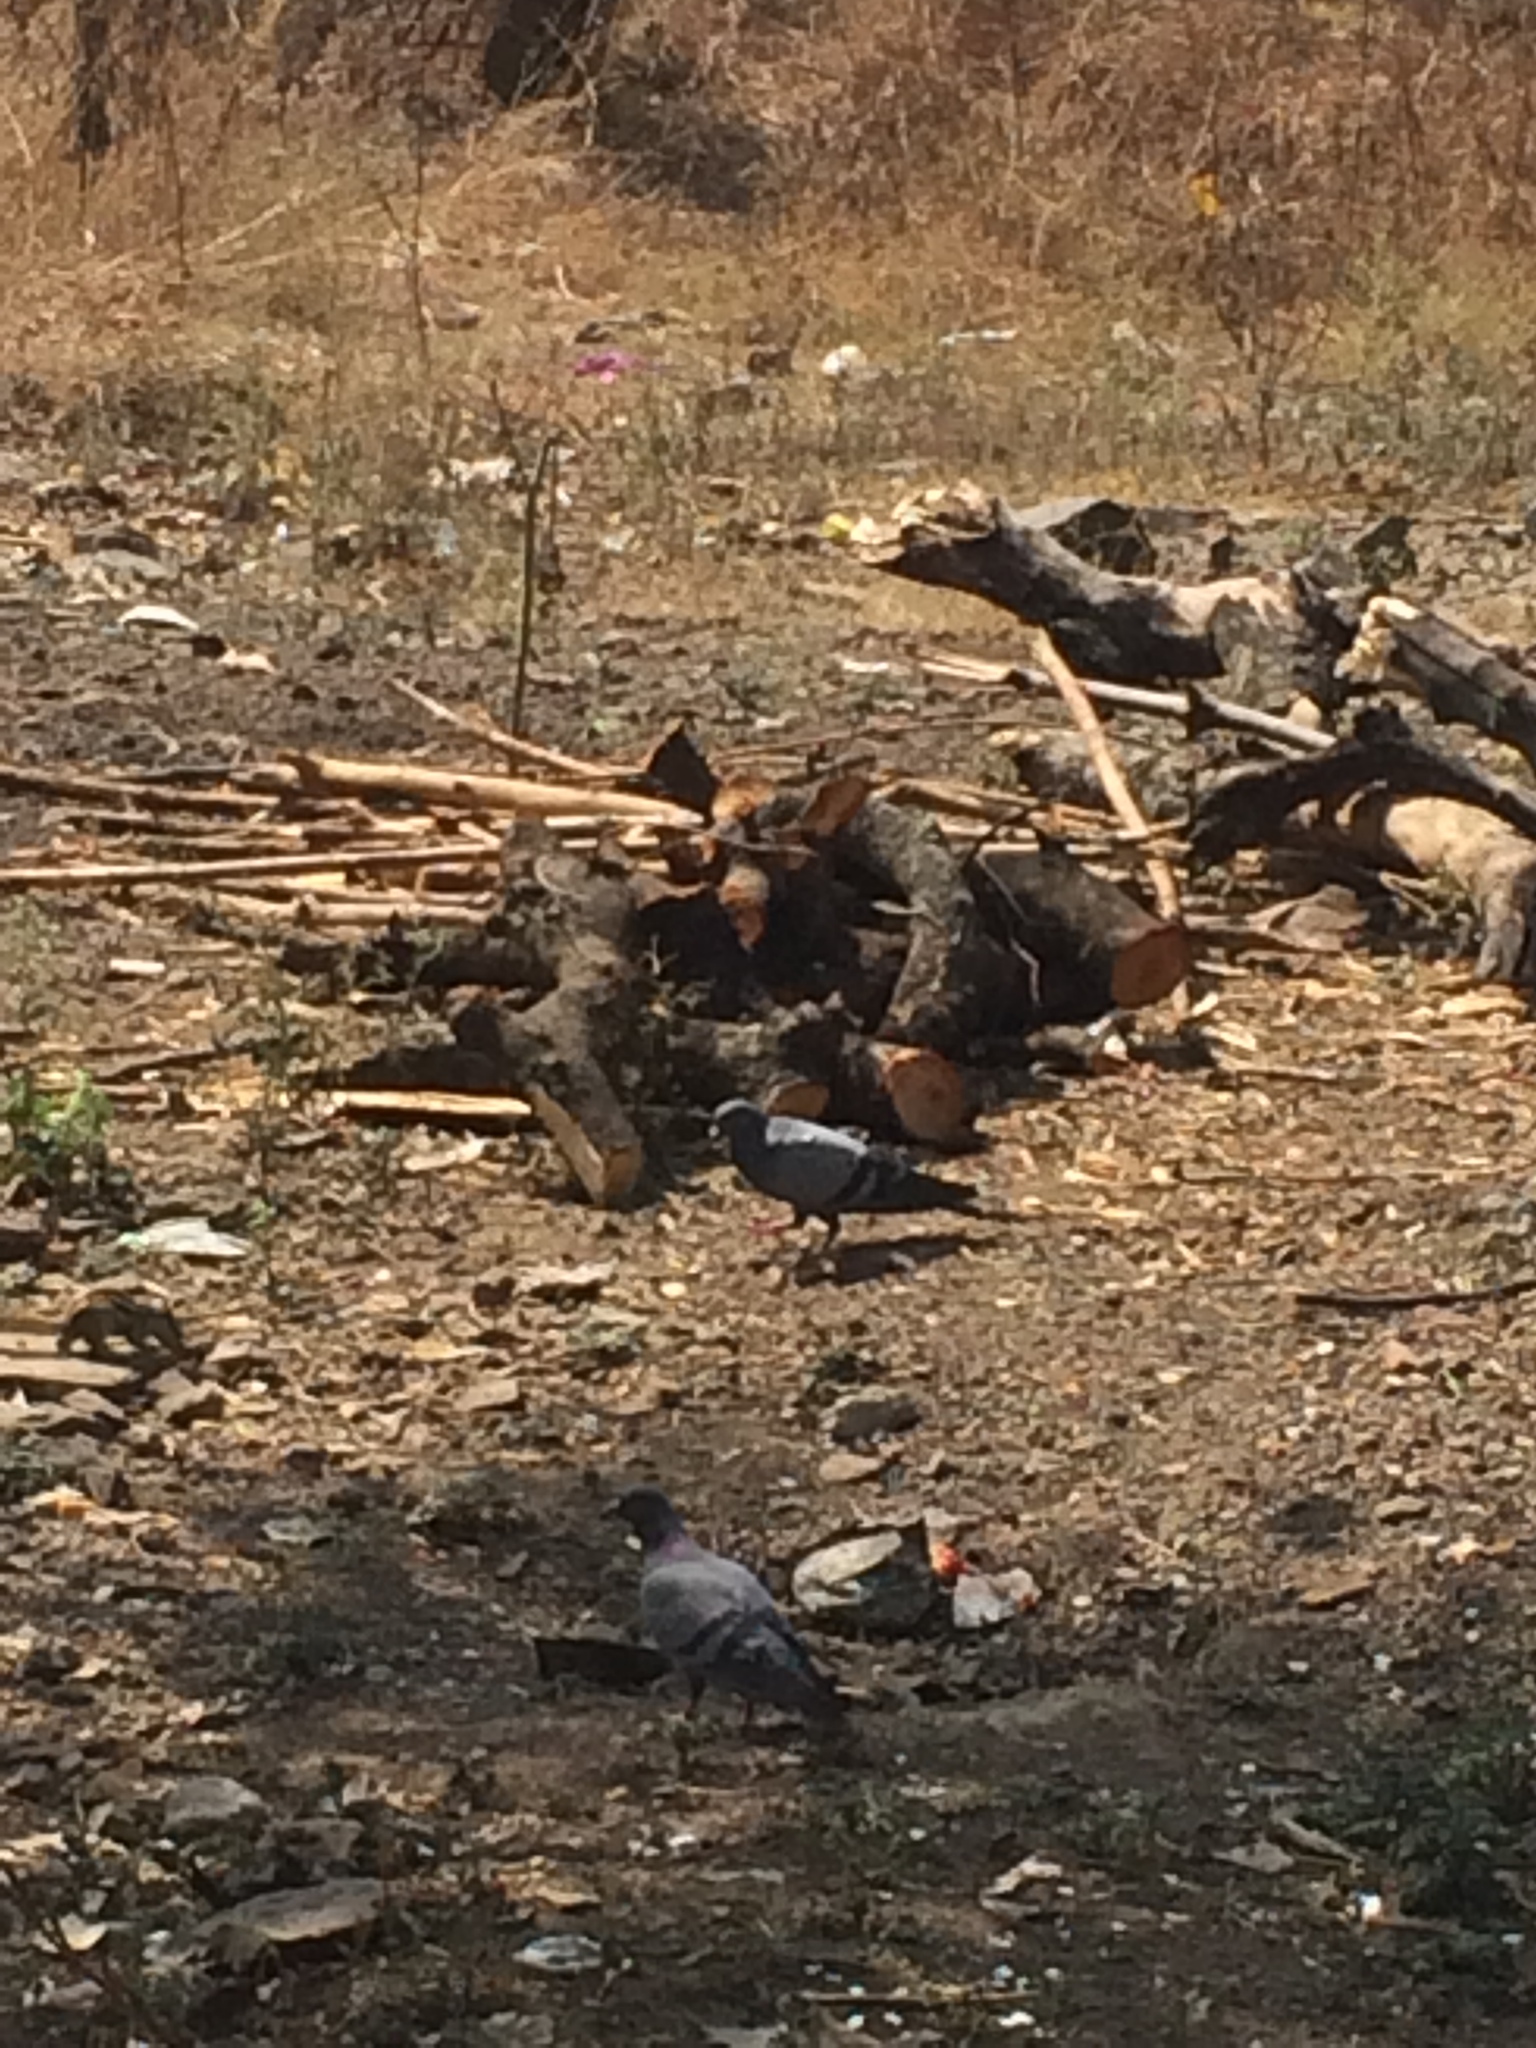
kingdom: Animalia
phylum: Chordata
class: Aves
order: Columbiformes
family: Columbidae
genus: Columba
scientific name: Columba livia
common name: Rock pigeon
